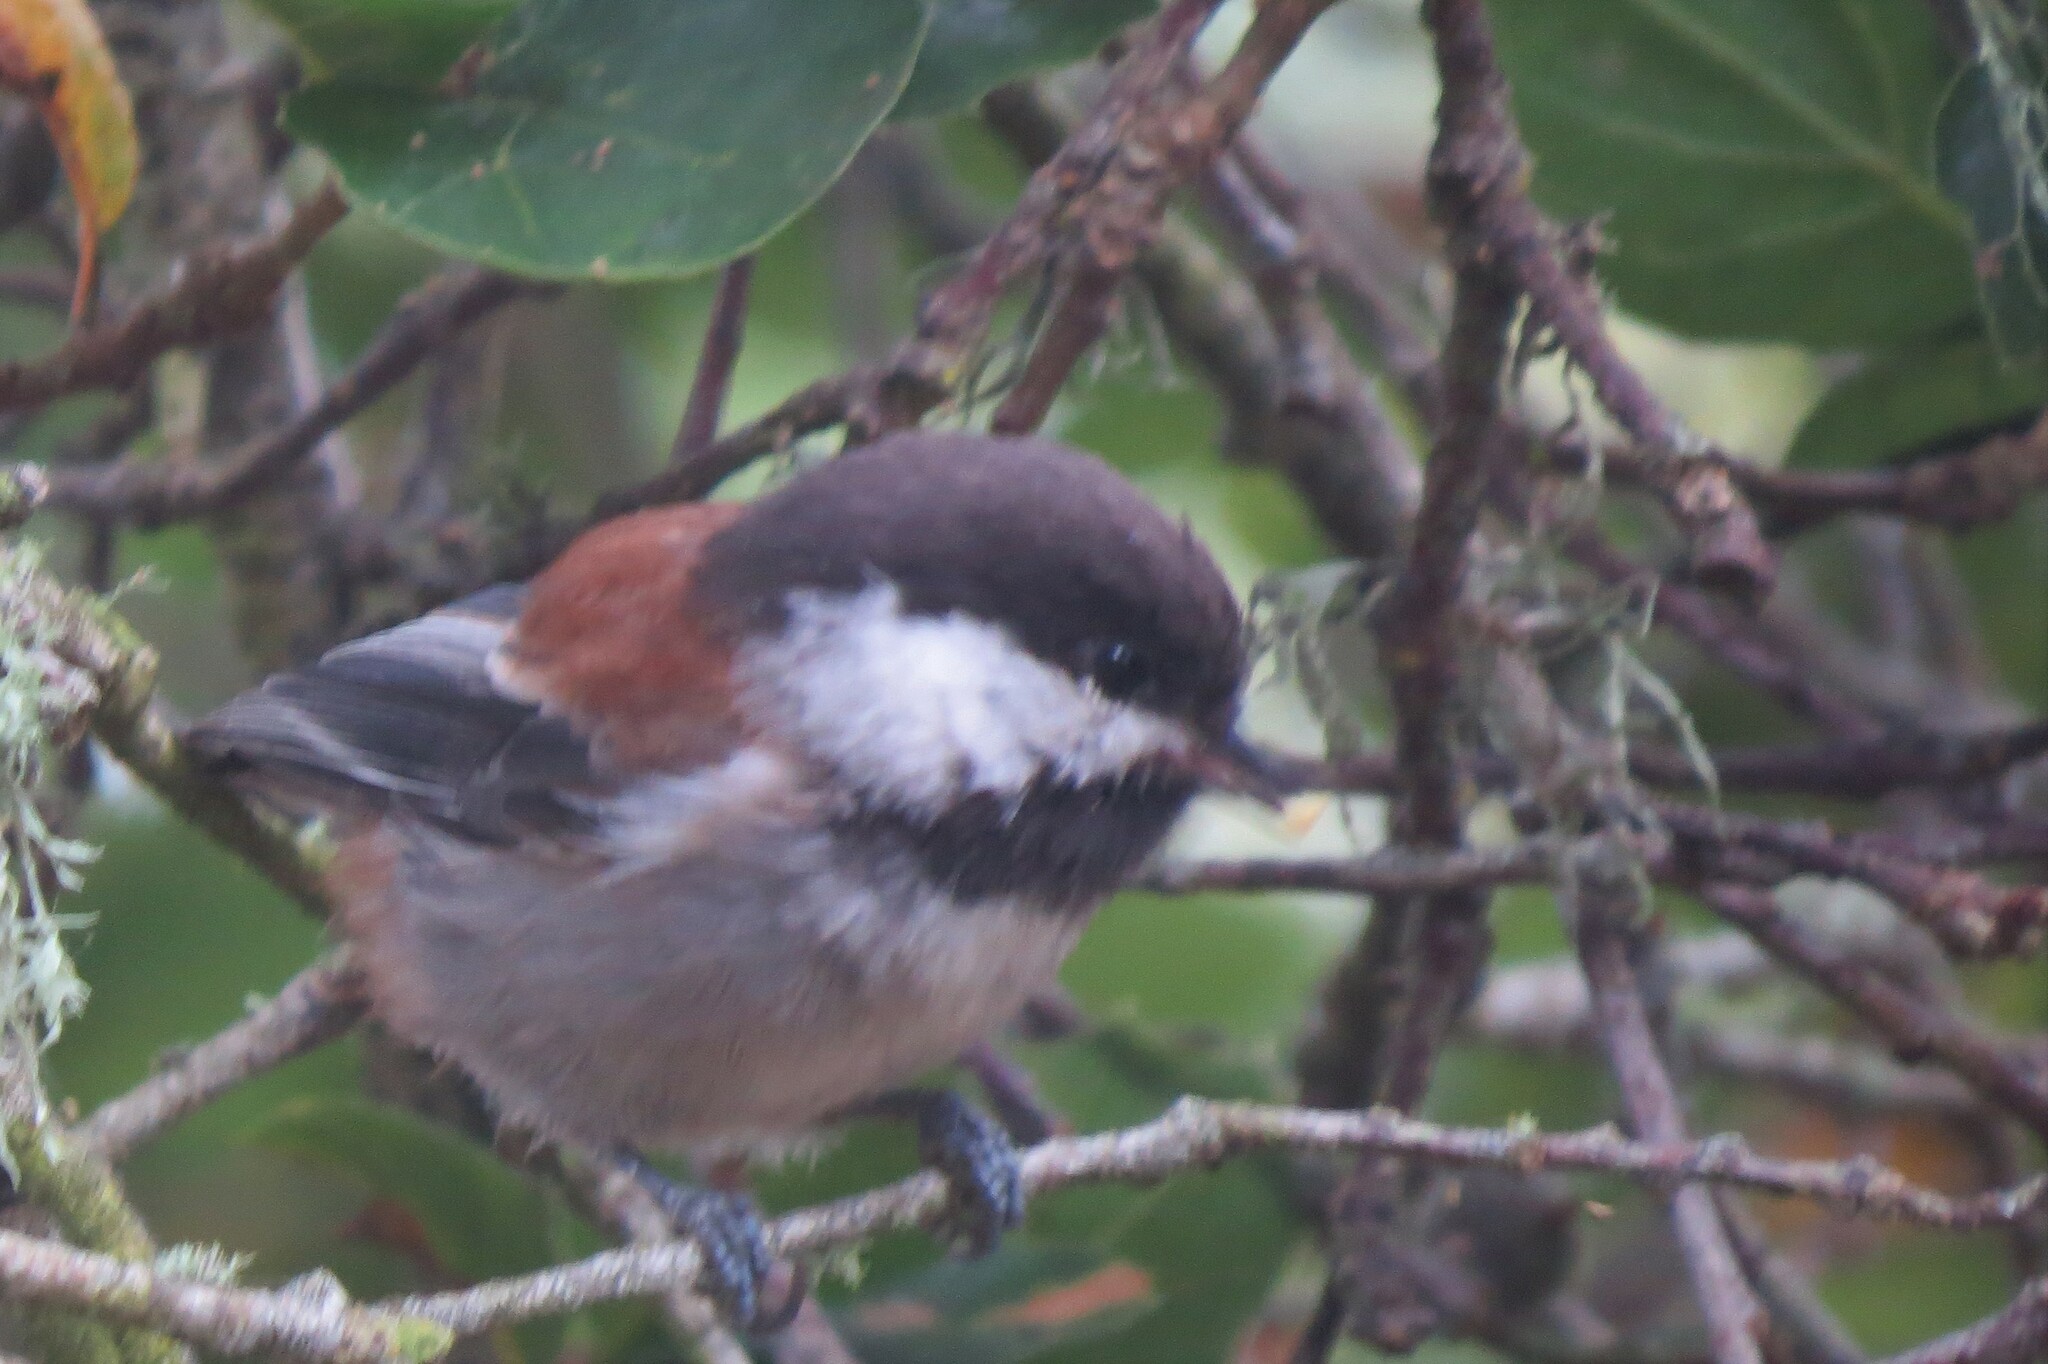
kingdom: Animalia
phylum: Chordata
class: Aves
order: Passeriformes
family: Paridae
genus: Poecile
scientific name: Poecile rufescens
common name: Chestnut-backed chickadee
